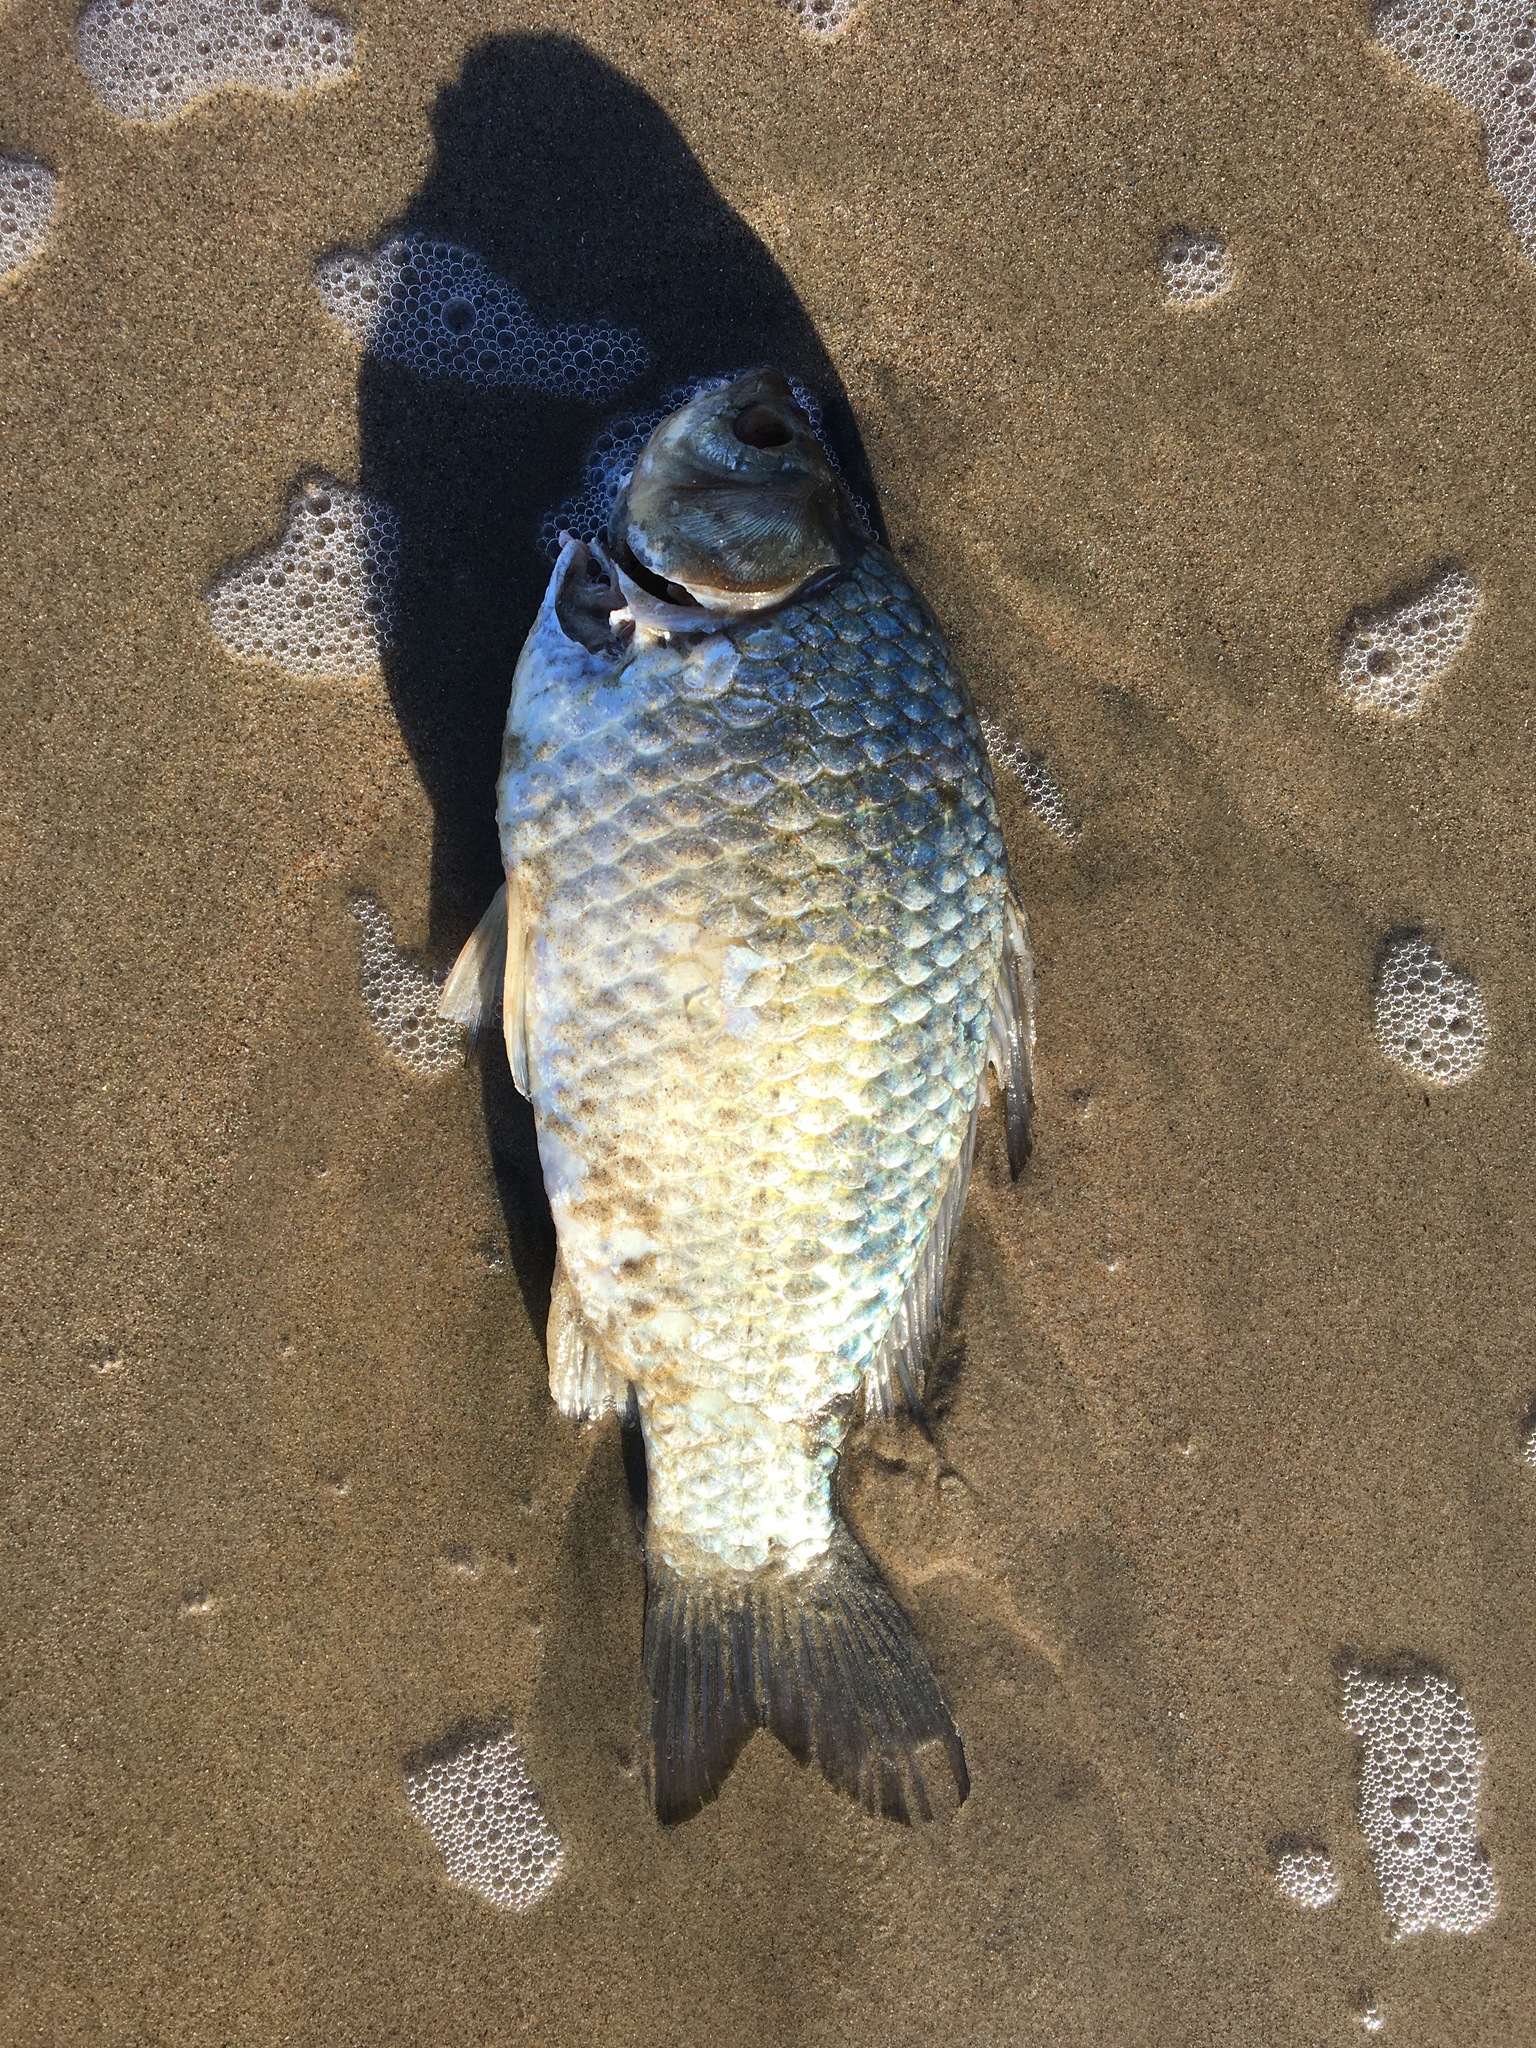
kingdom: Animalia
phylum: Chordata
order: Cypriniformes
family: Cyprinidae
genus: Carassius
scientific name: Carassius auratus
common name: Goldfish
